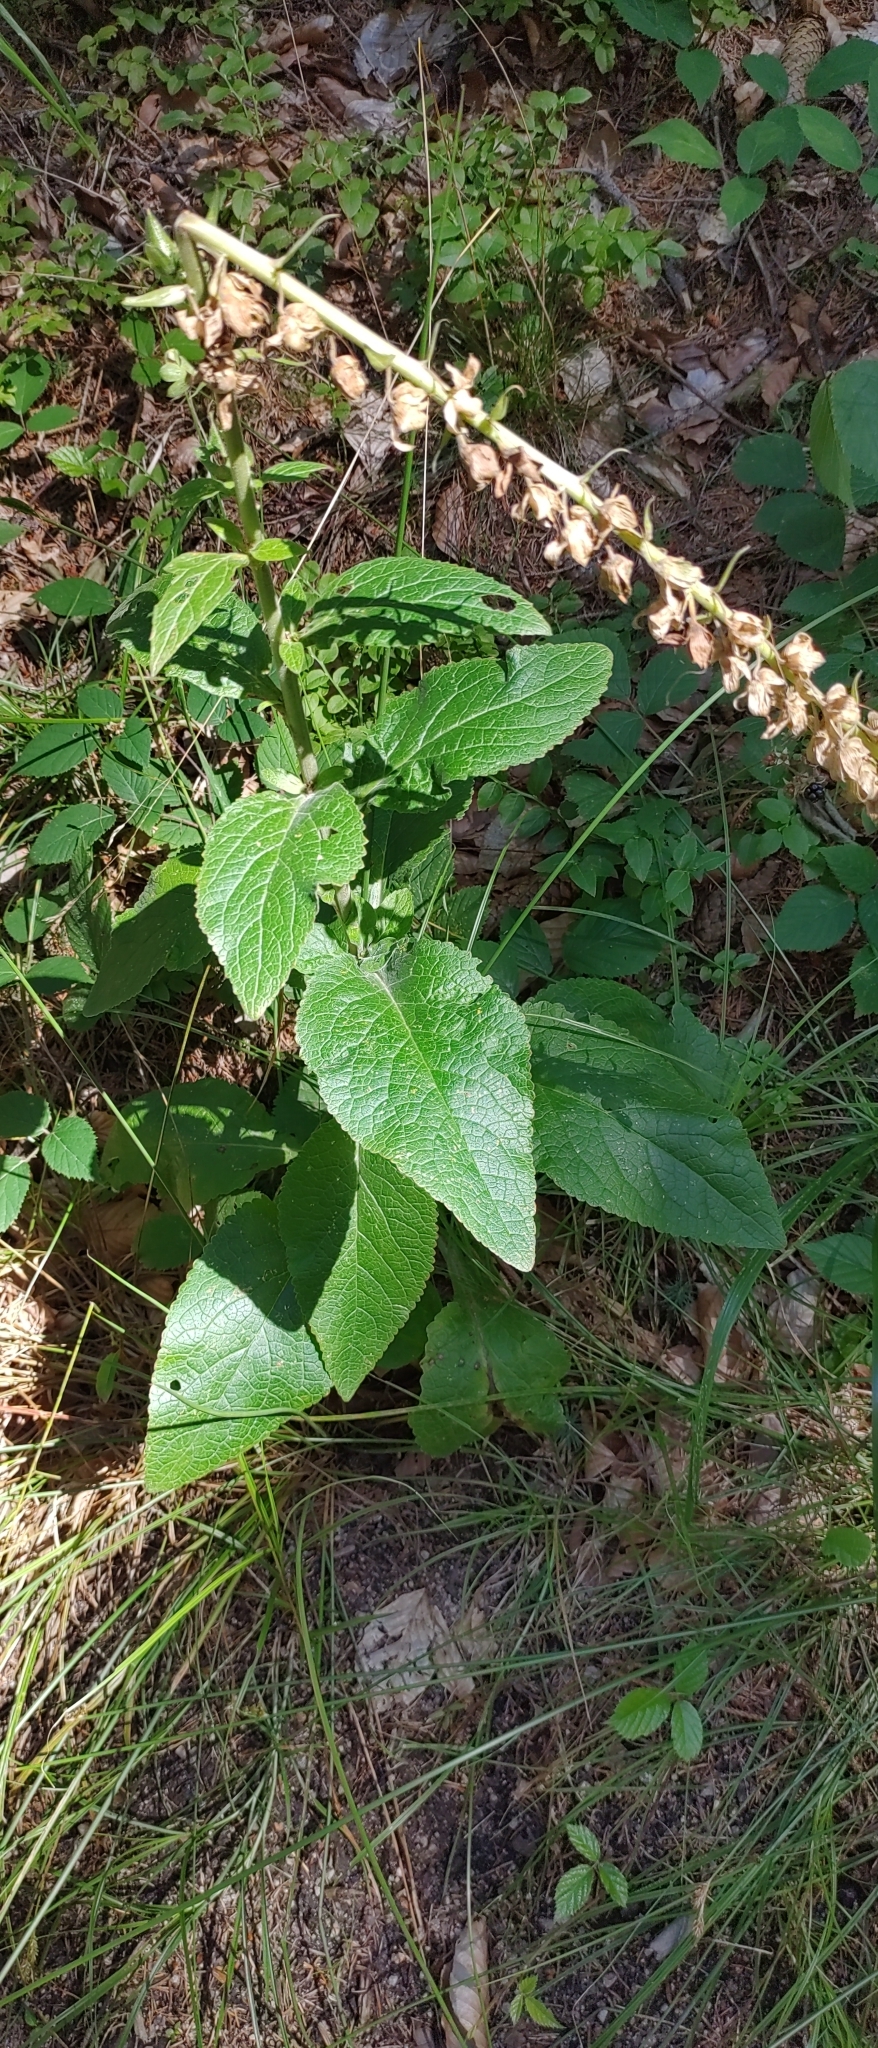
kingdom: Plantae
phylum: Tracheophyta
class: Magnoliopsida
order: Lamiales
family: Plantaginaceae
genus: Digitalis
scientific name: Digitalis purpurea
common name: Foxglove
